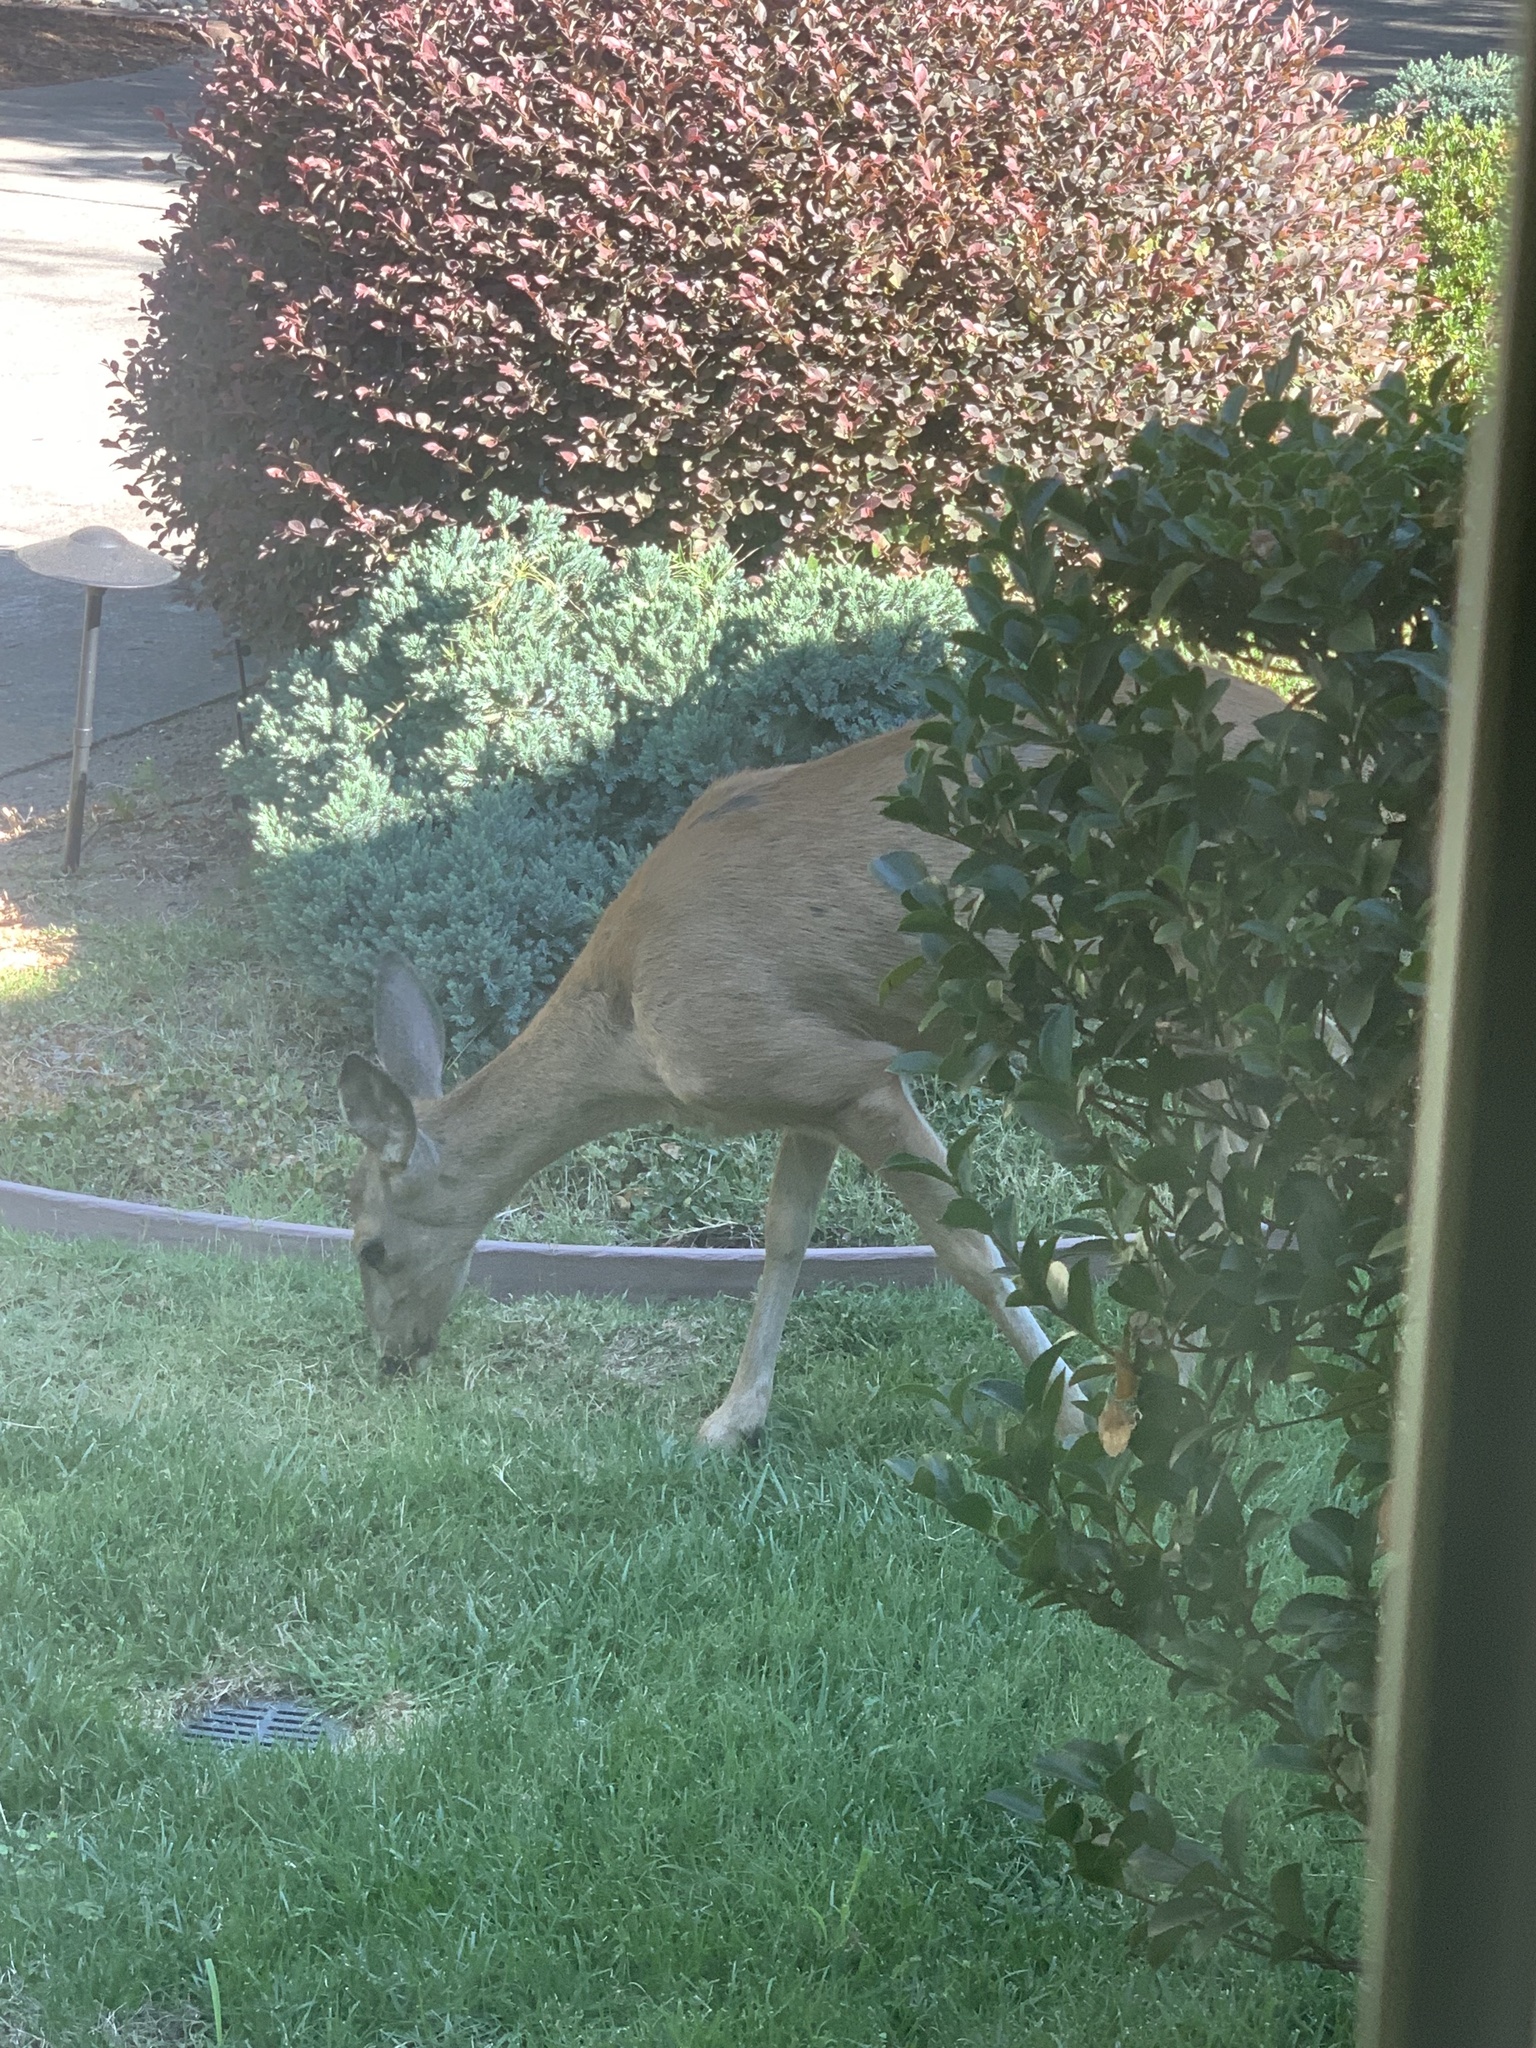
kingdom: Animalia
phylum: Chordata
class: Mammalia
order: Artiodactyla
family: Cervidae
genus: Odocoileus
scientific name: Odocoileus hemionus
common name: Mule deer
